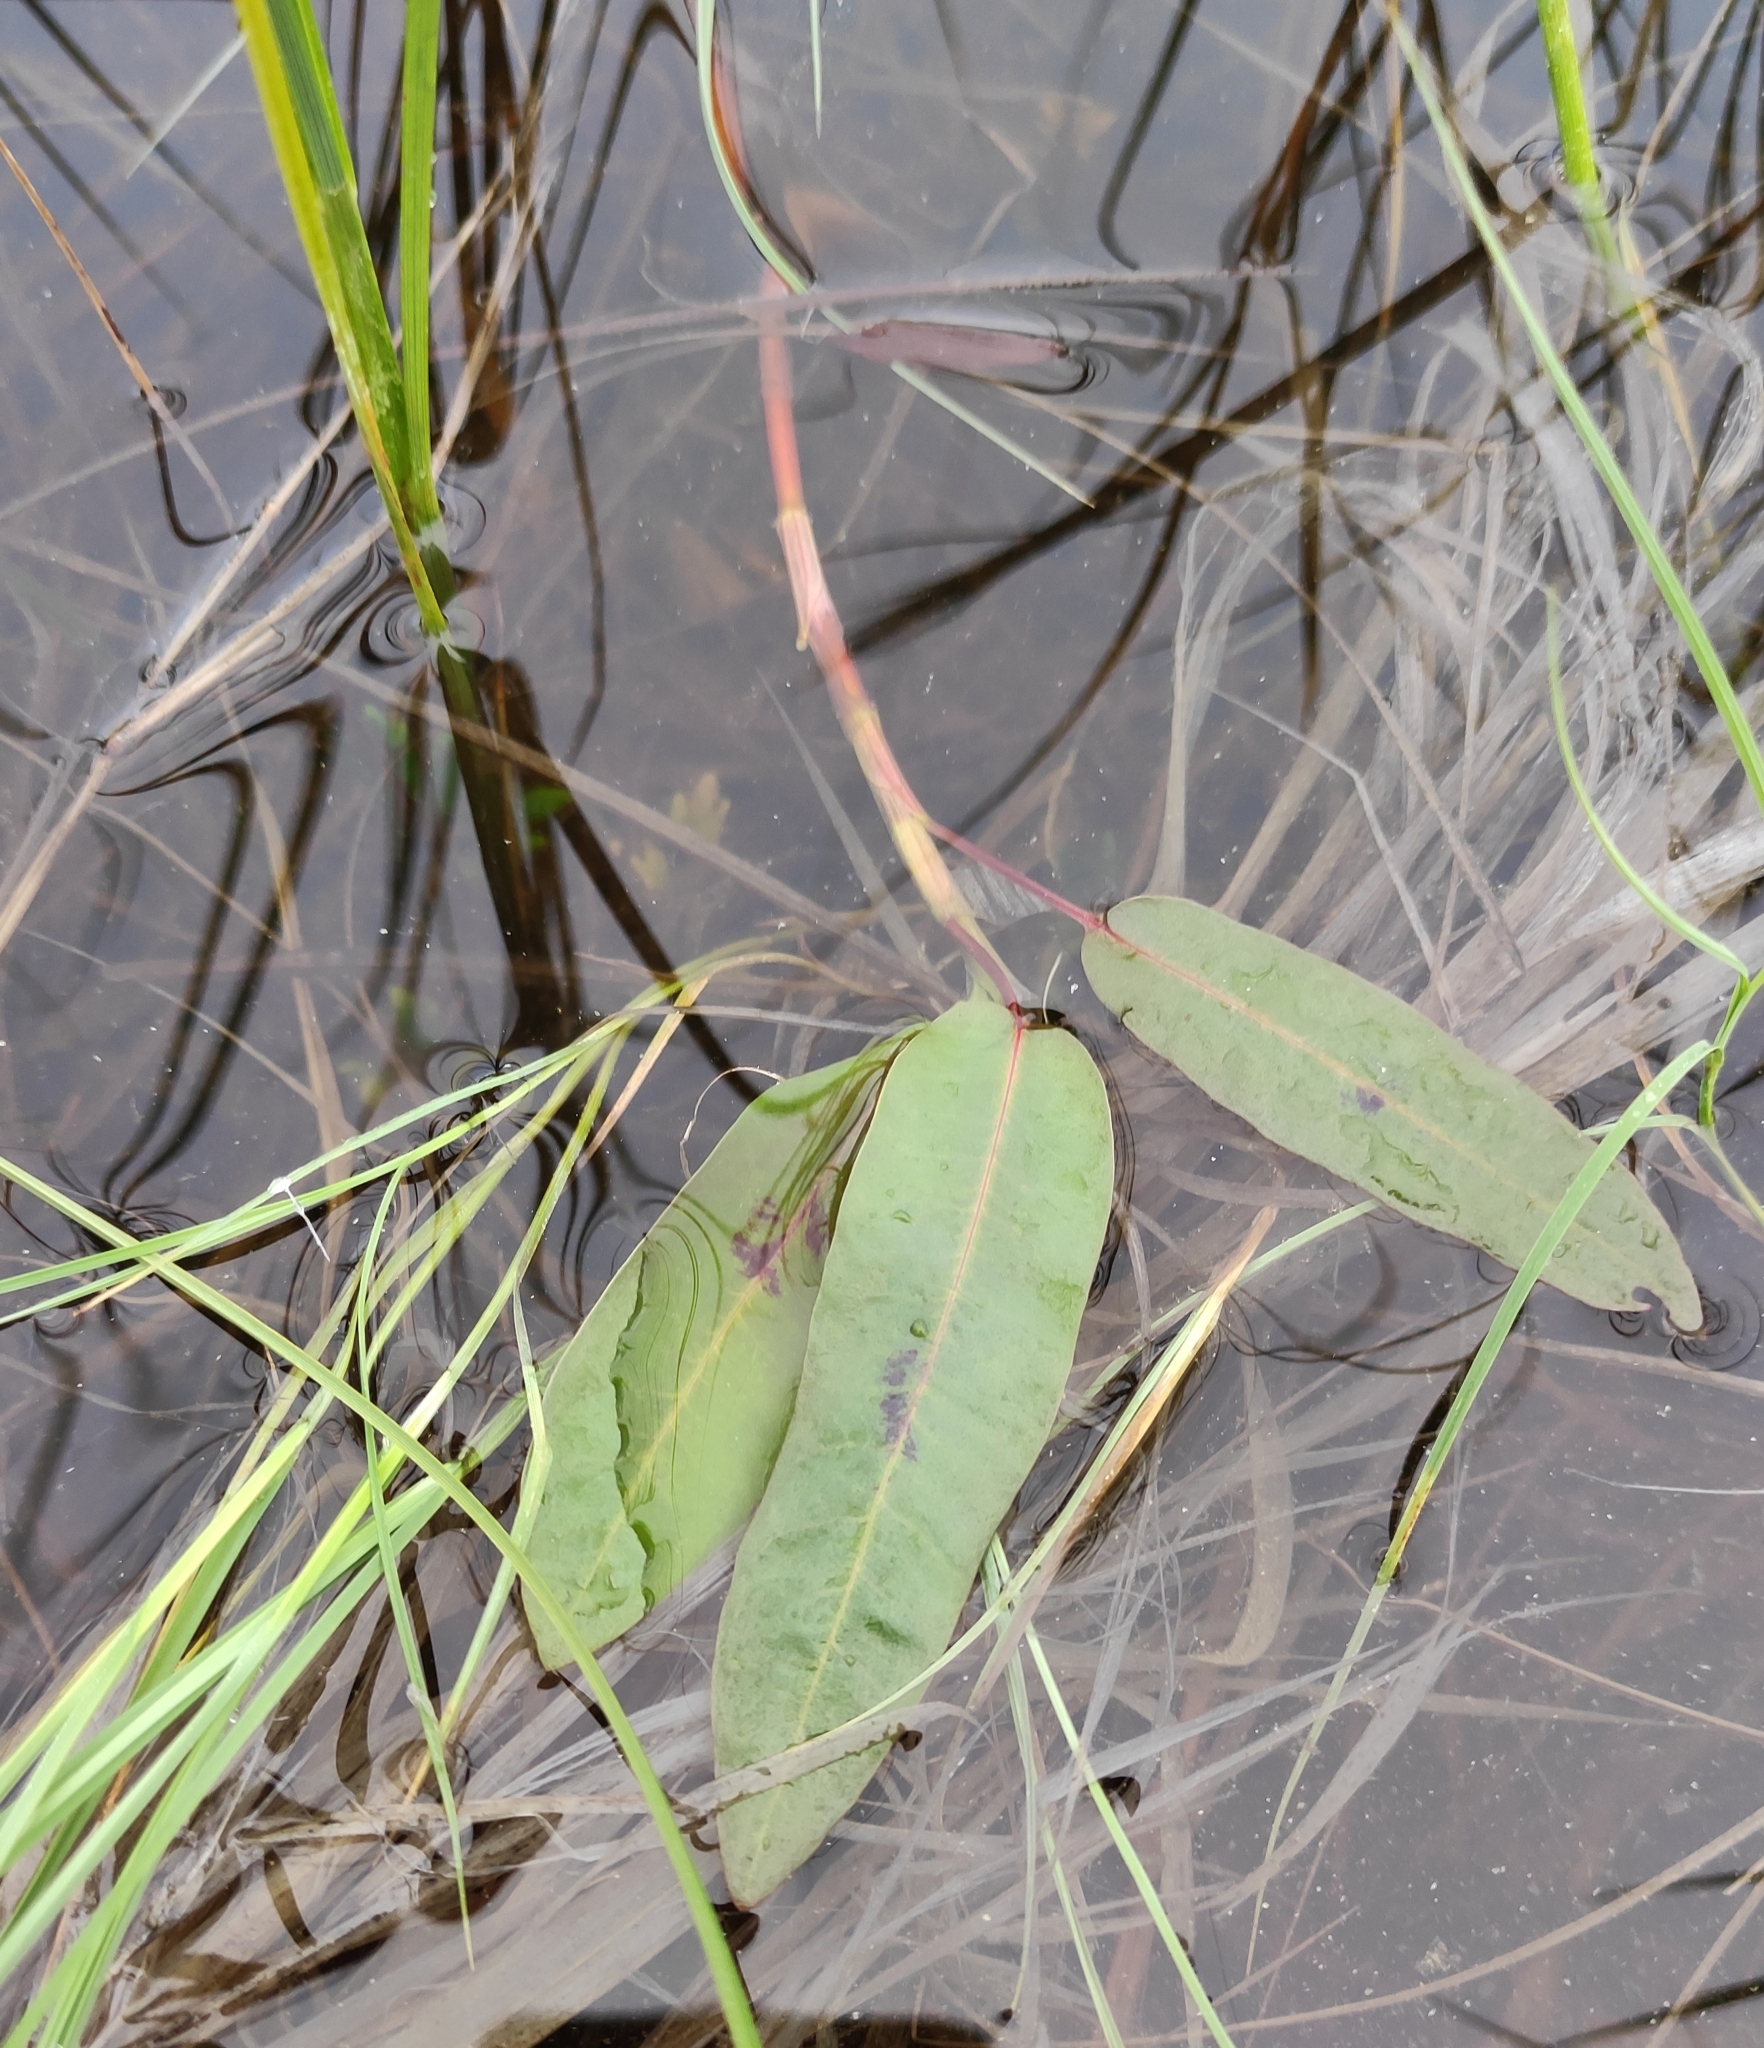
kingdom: Plantae
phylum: Tracheophyta
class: Magnoliopsida
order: Caryophyllales
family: Polygonaceae
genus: Persicaria
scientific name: Persicaria amphibia
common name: Amphibious bistort
